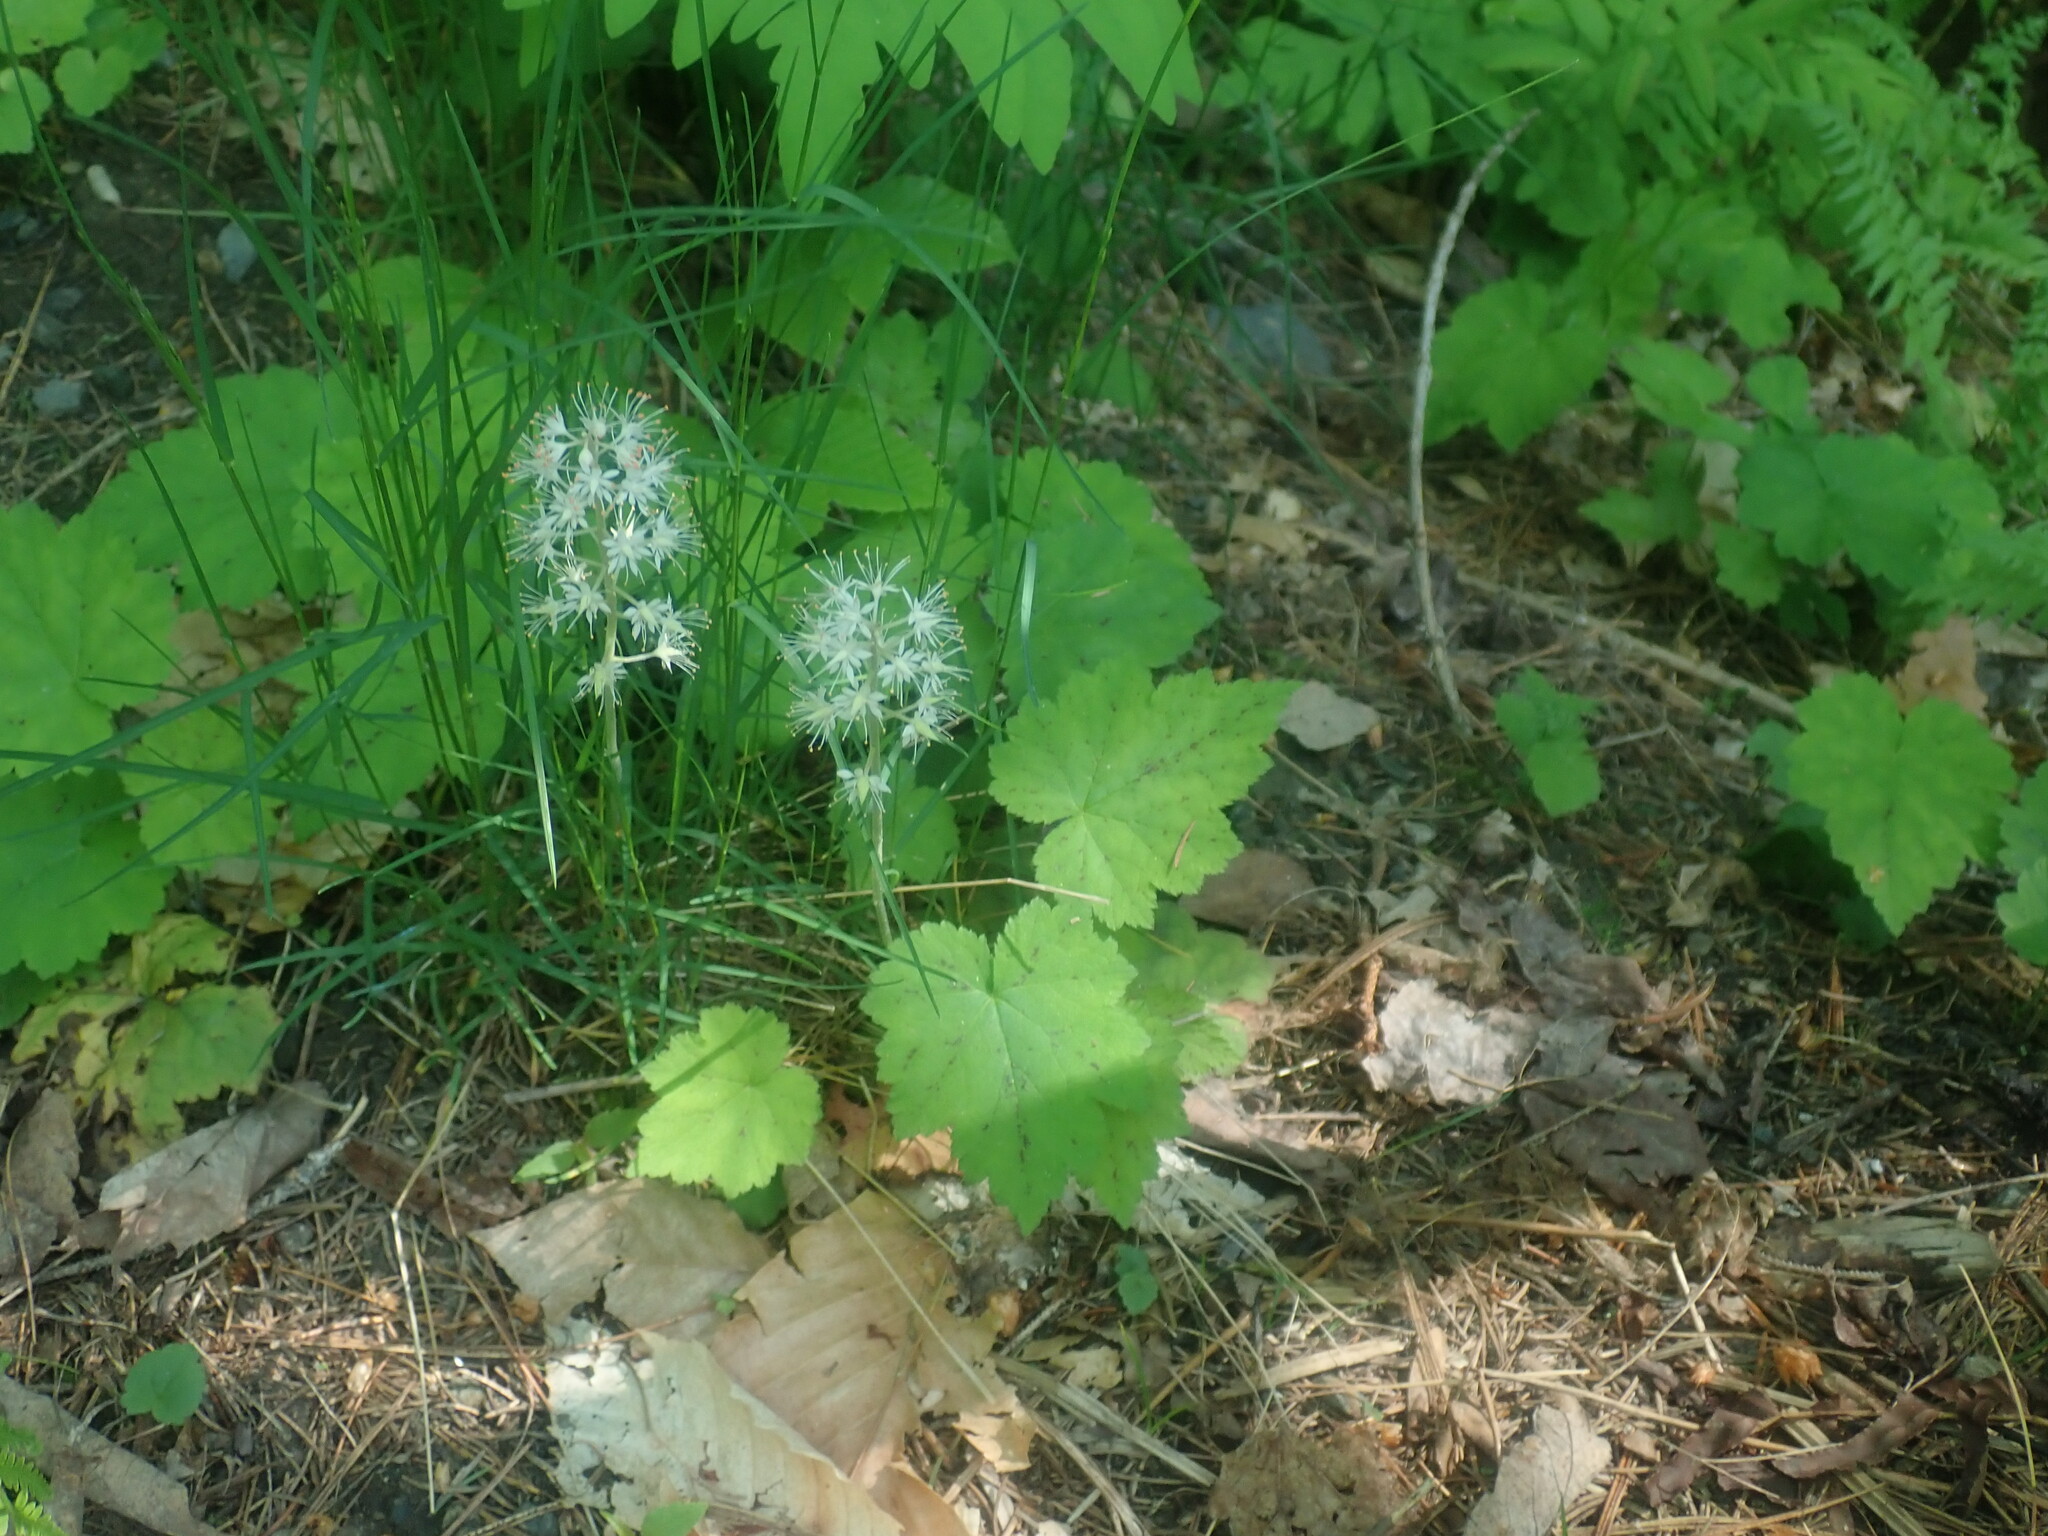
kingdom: Plantae
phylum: Tracheophyta
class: Magnoliopsida
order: Saxifragales
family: Saxifragaceae
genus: Tiarella
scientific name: Tiarella stolonifera
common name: Stoloniferous foamflower
